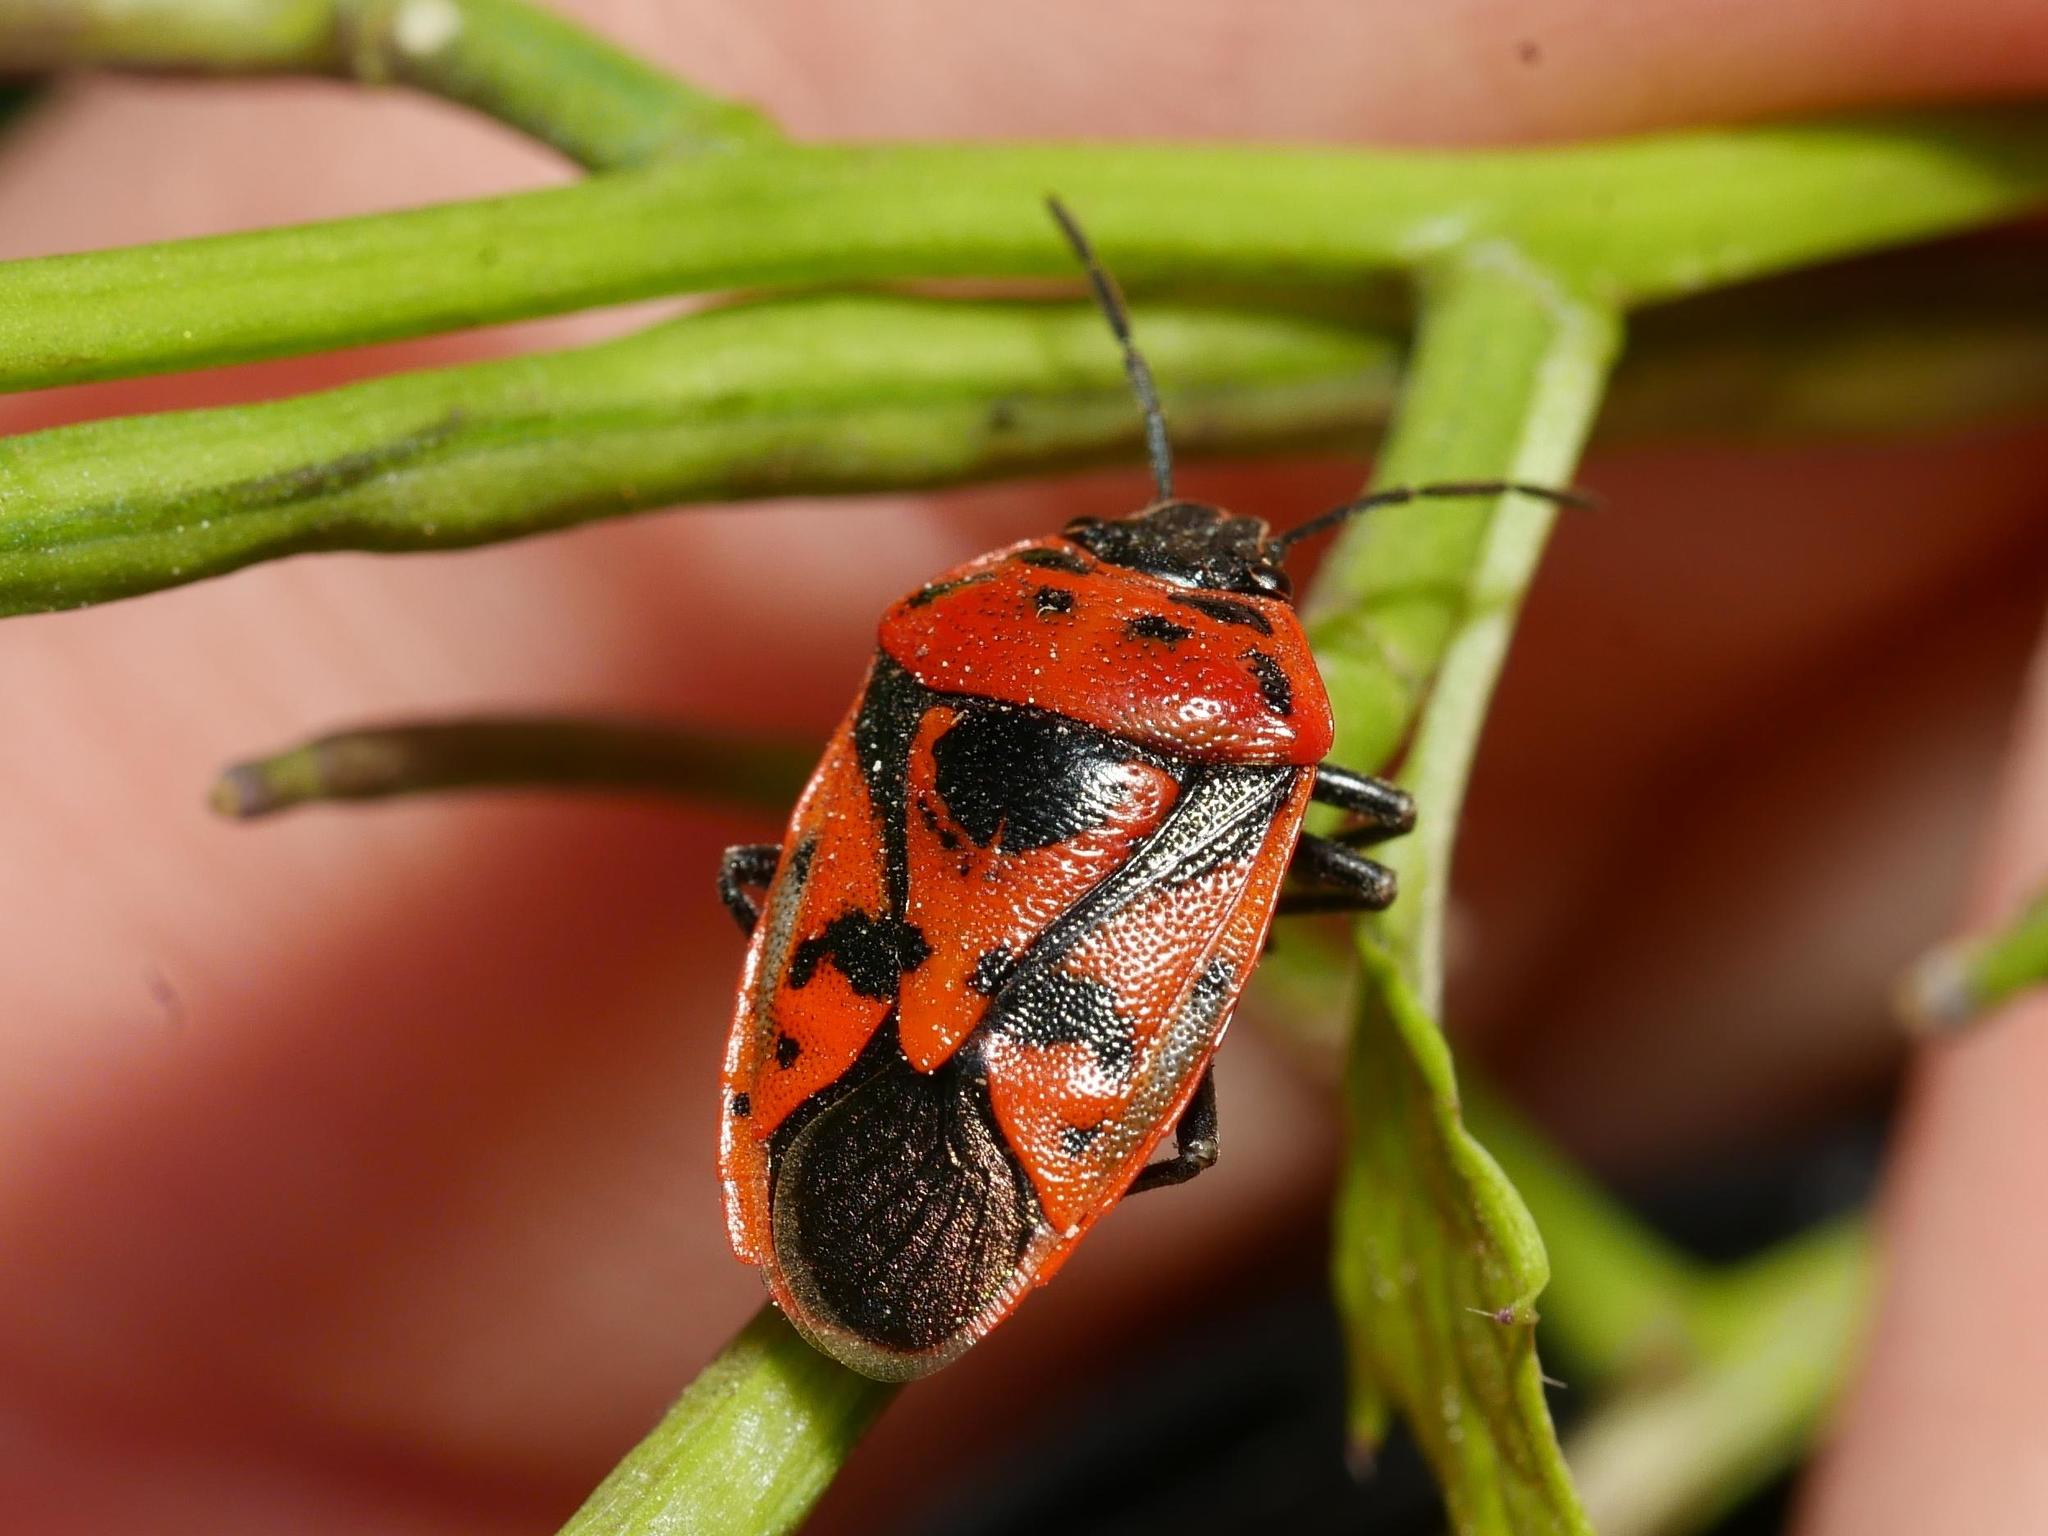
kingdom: Animalia
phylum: Arthropoda
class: Insecta
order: Hemiptera
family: Pentatomidae
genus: Eurydema
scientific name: Eurydema ornata
